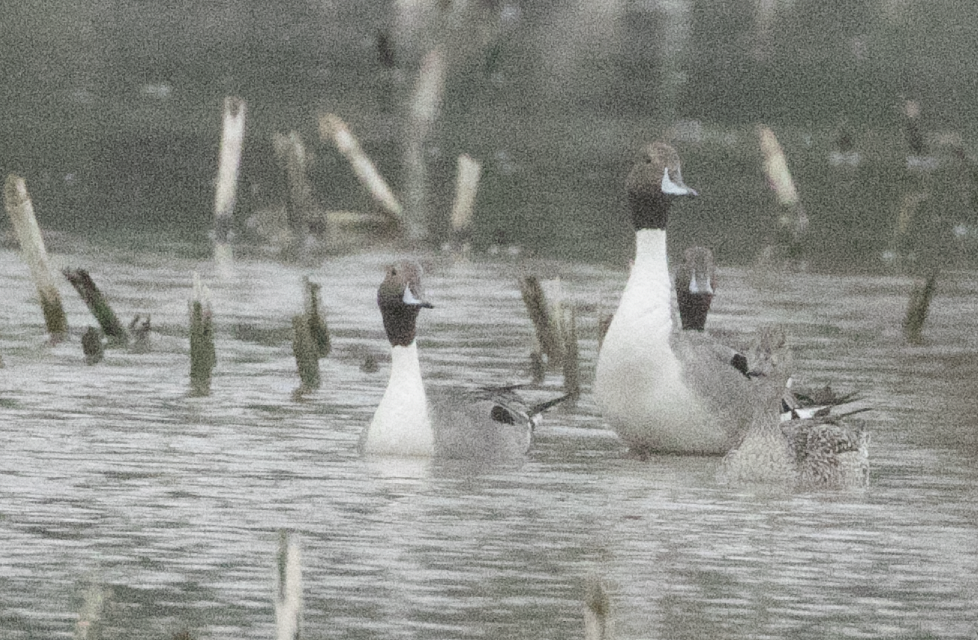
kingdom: Animalia
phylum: Chordata
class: Aves
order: Anseriformes
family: Anatidae
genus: Anas
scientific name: Anas acuta
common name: Northern pintail
